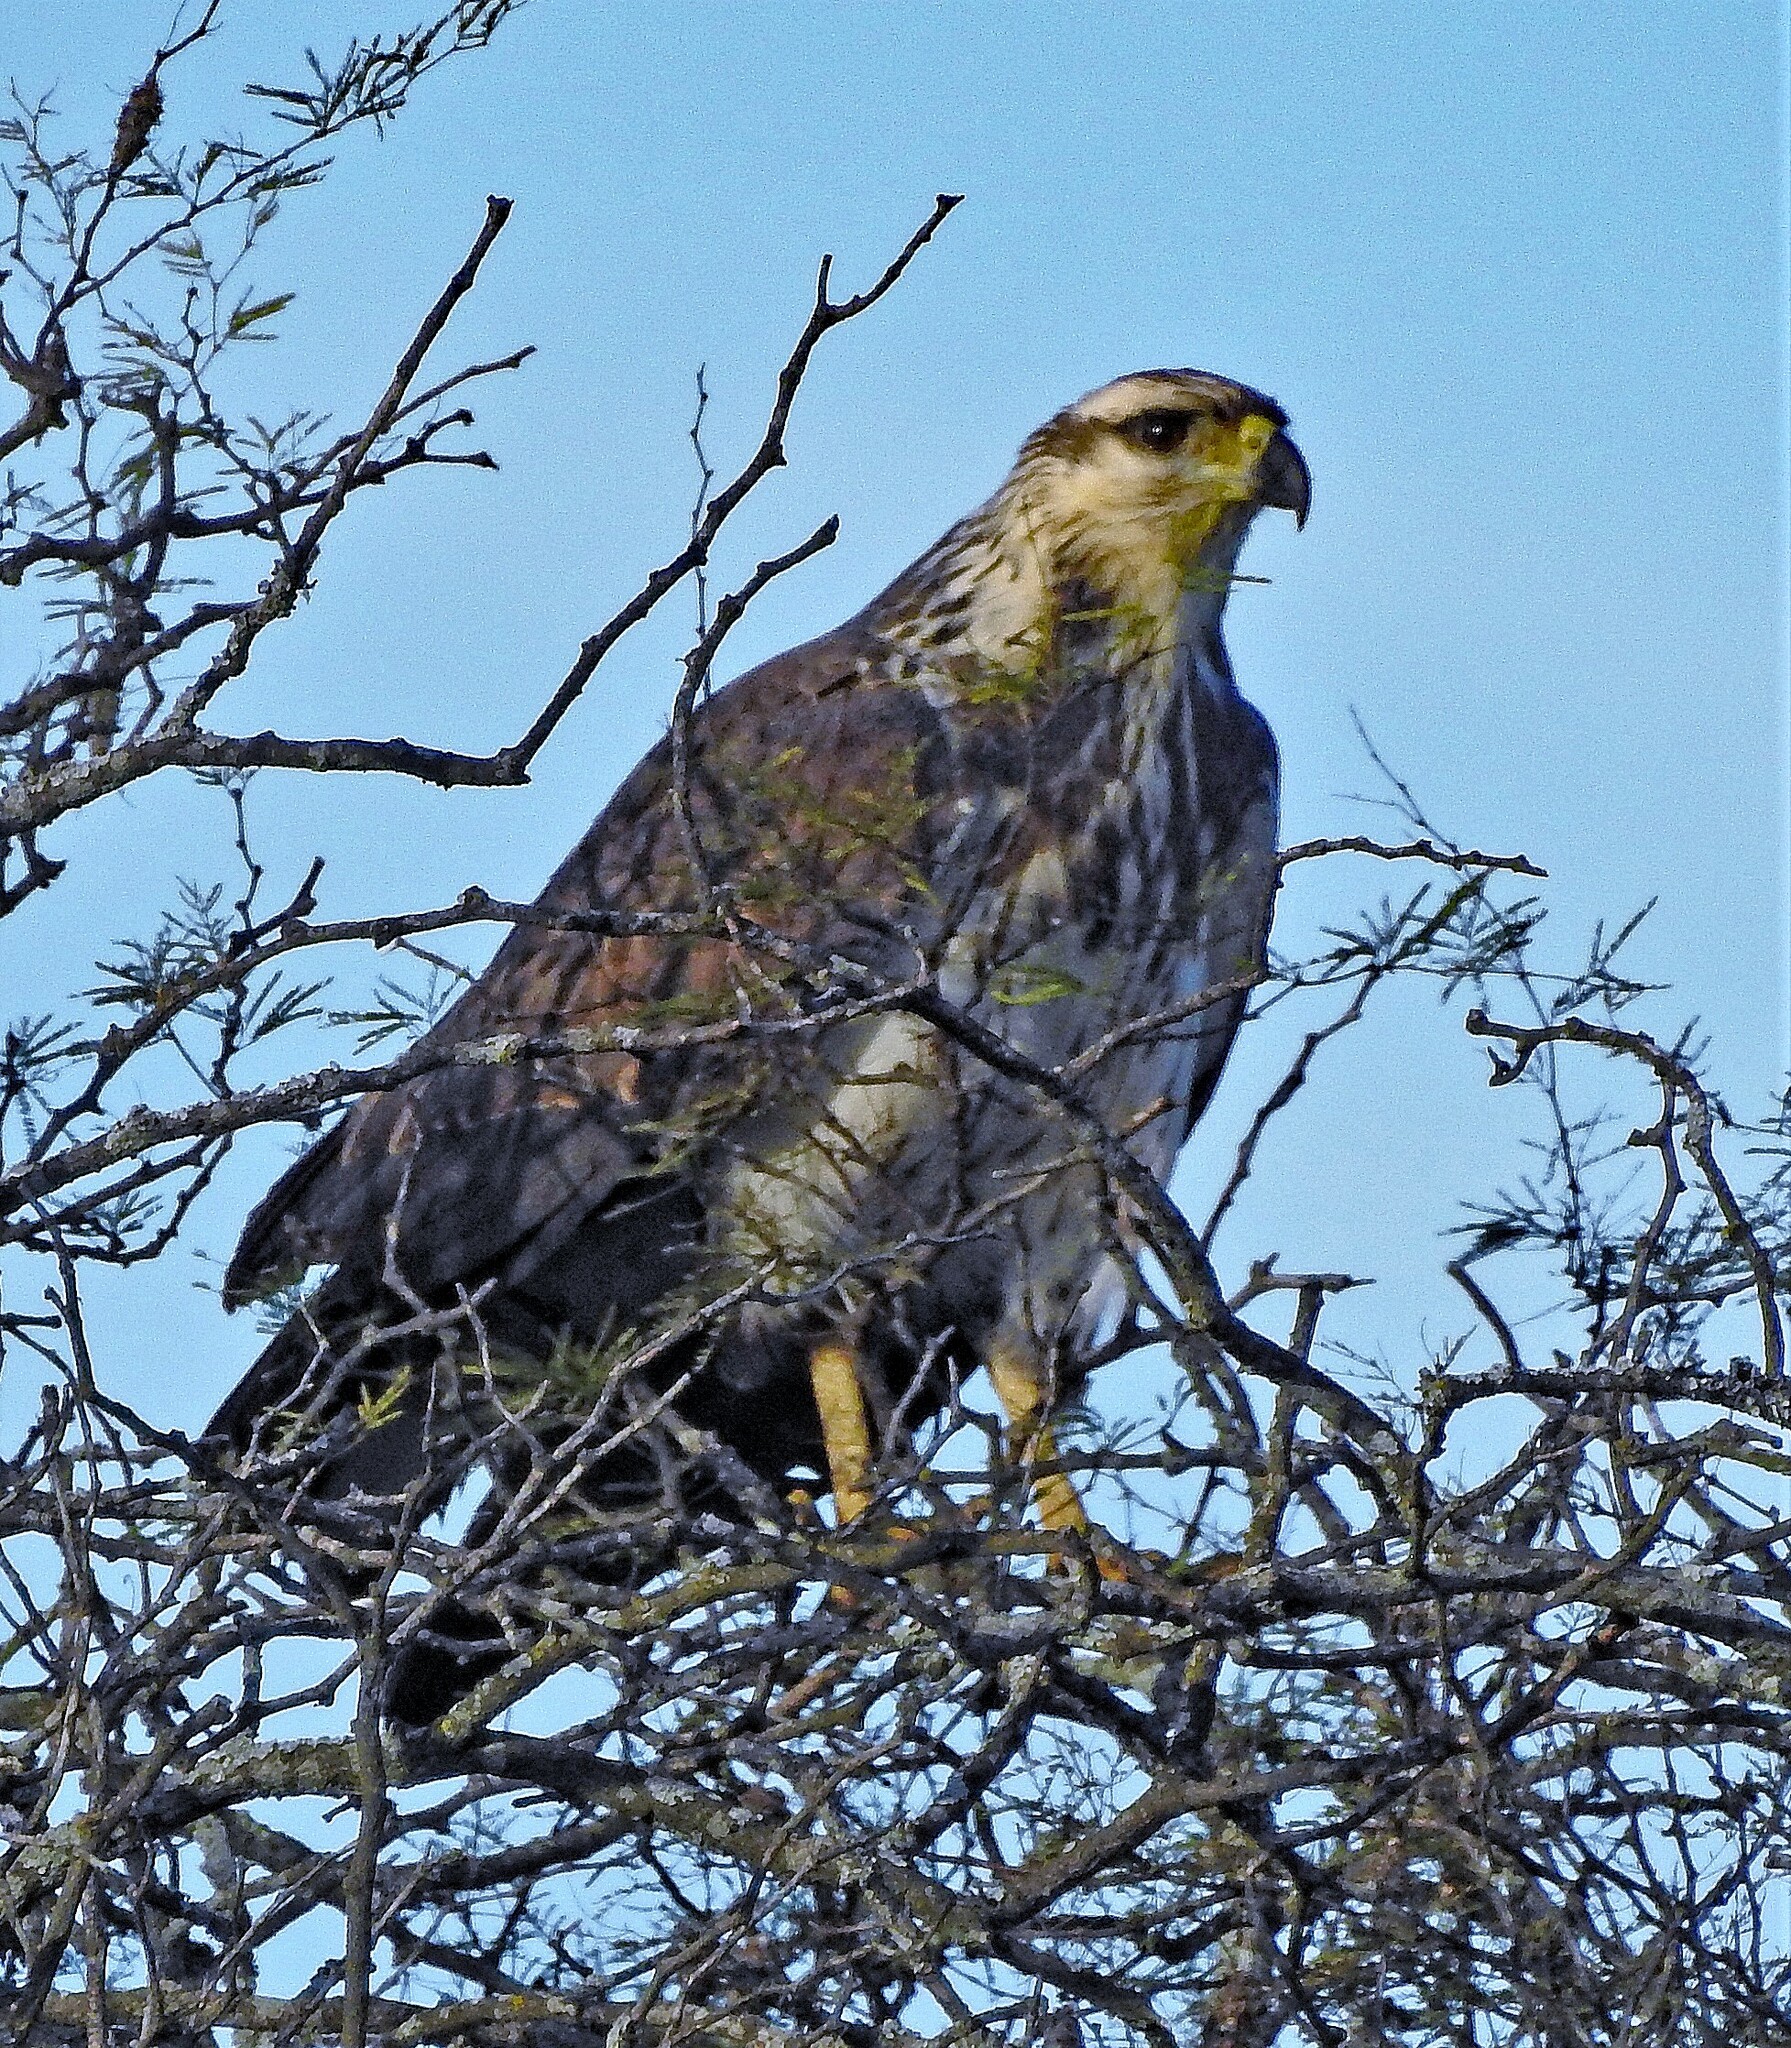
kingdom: Animalia
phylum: Chordata
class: Aves
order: Accipitriformes
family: Accipitridae
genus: Harpyhaliaetus
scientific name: Harpyhaliaetus coronatus
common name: Crowned solitary eagle
